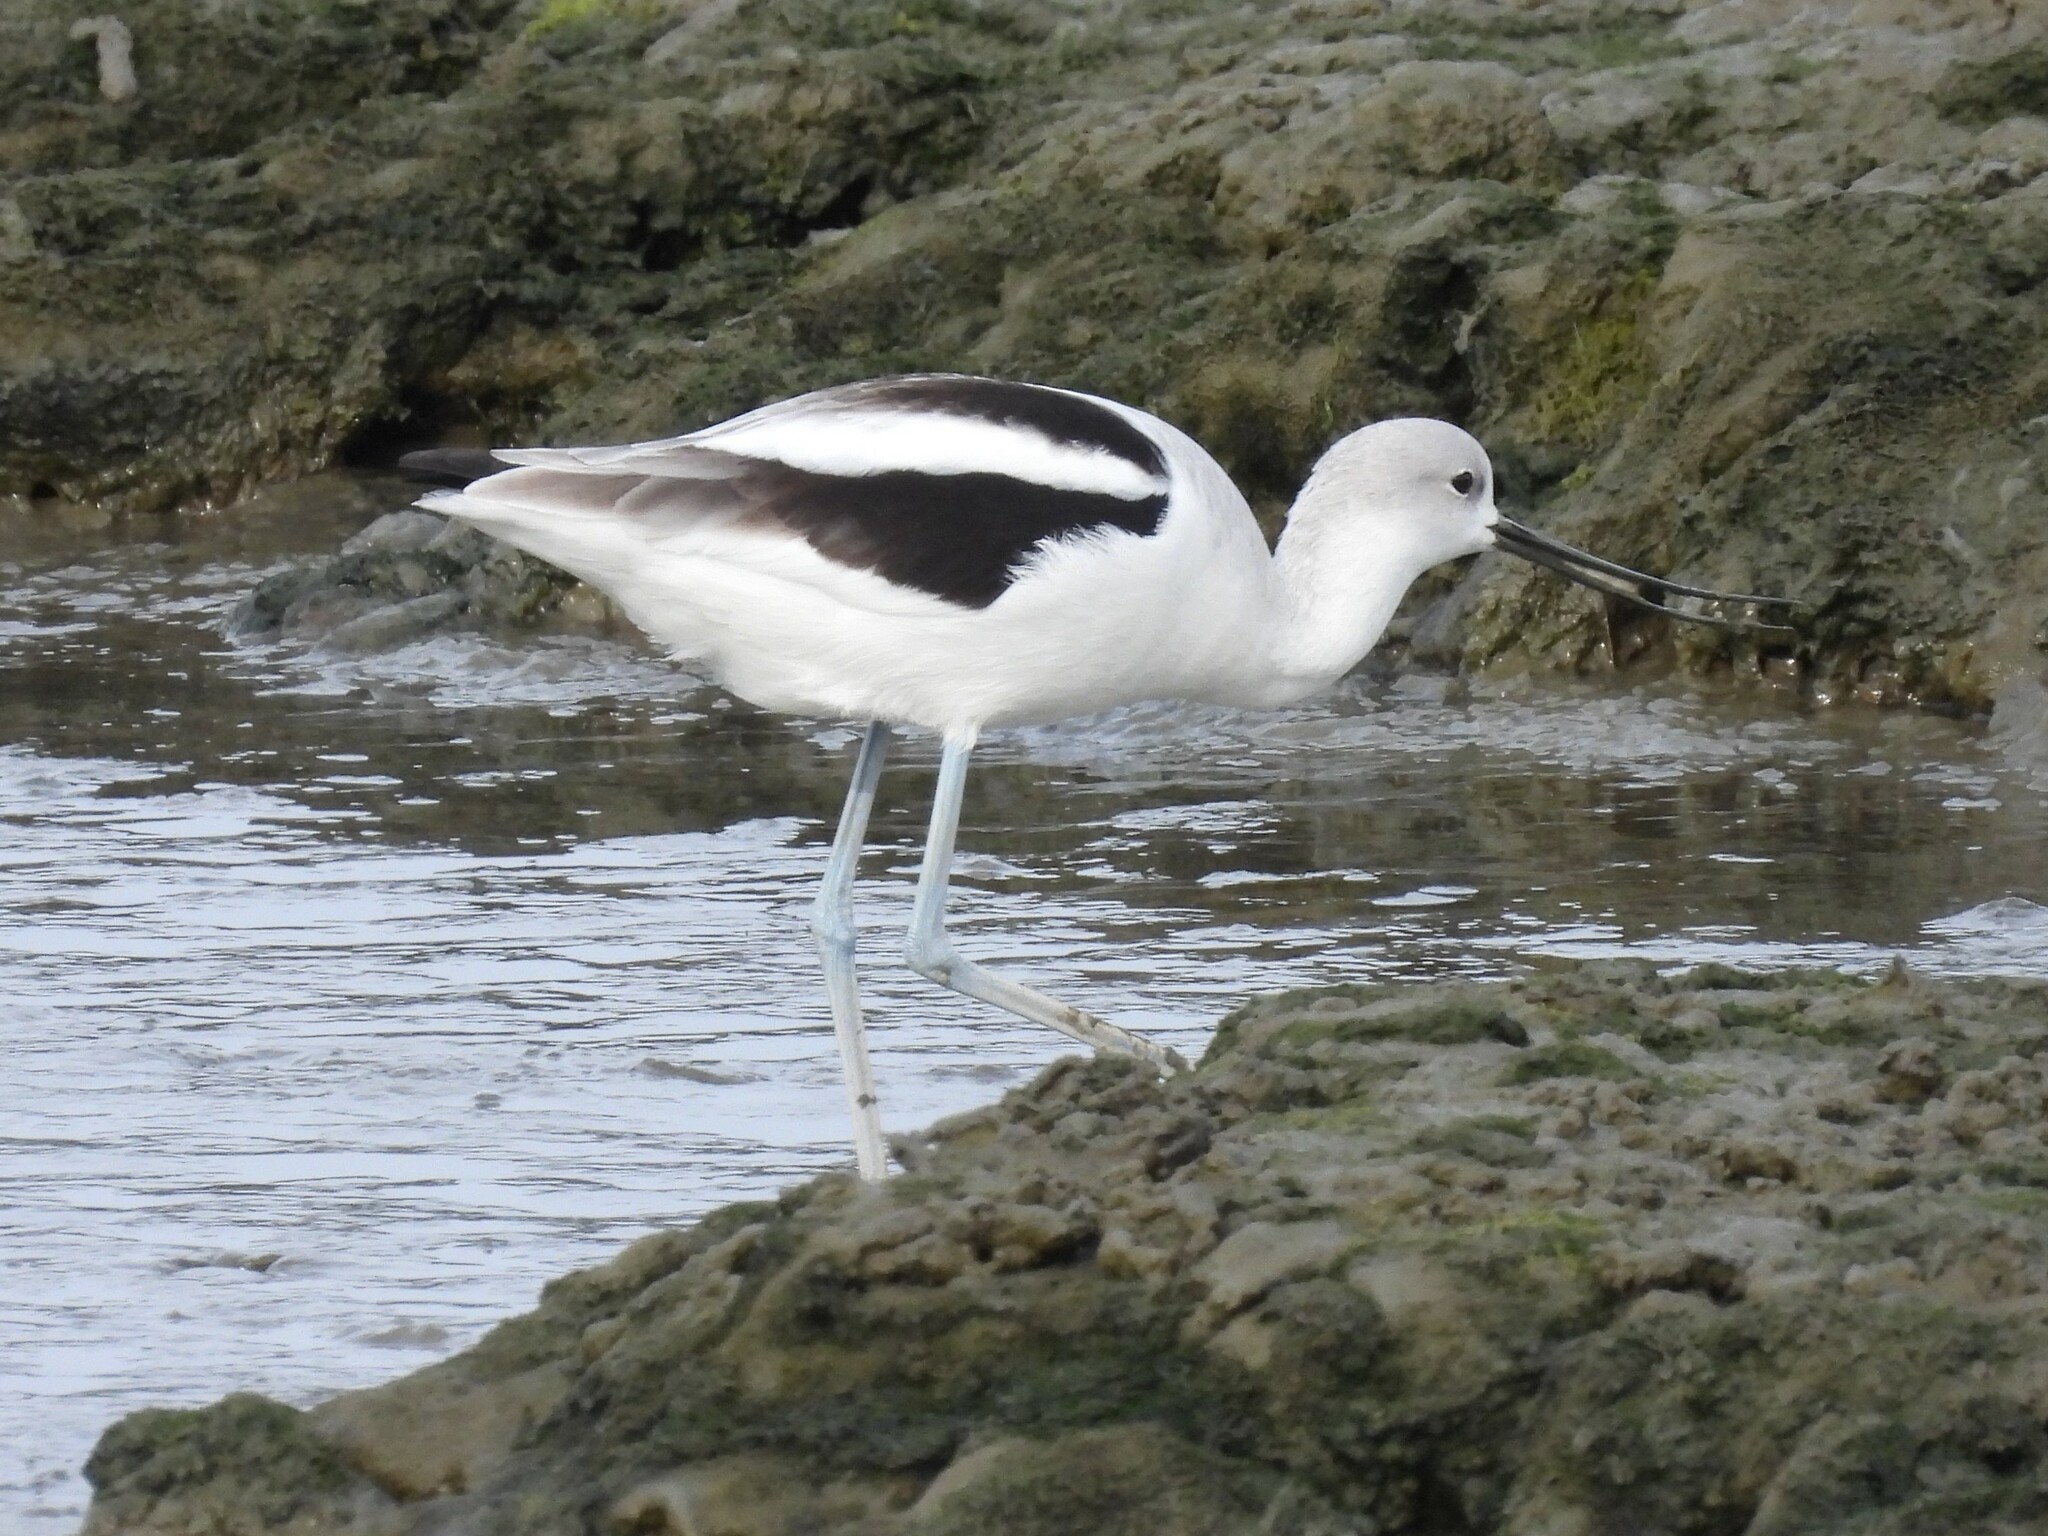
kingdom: Animalia
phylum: Chordata
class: Aves
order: Charadriiformes
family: Recurvirostridae
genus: Recurvirostra
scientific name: Recurvirostra americana
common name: American avocet
